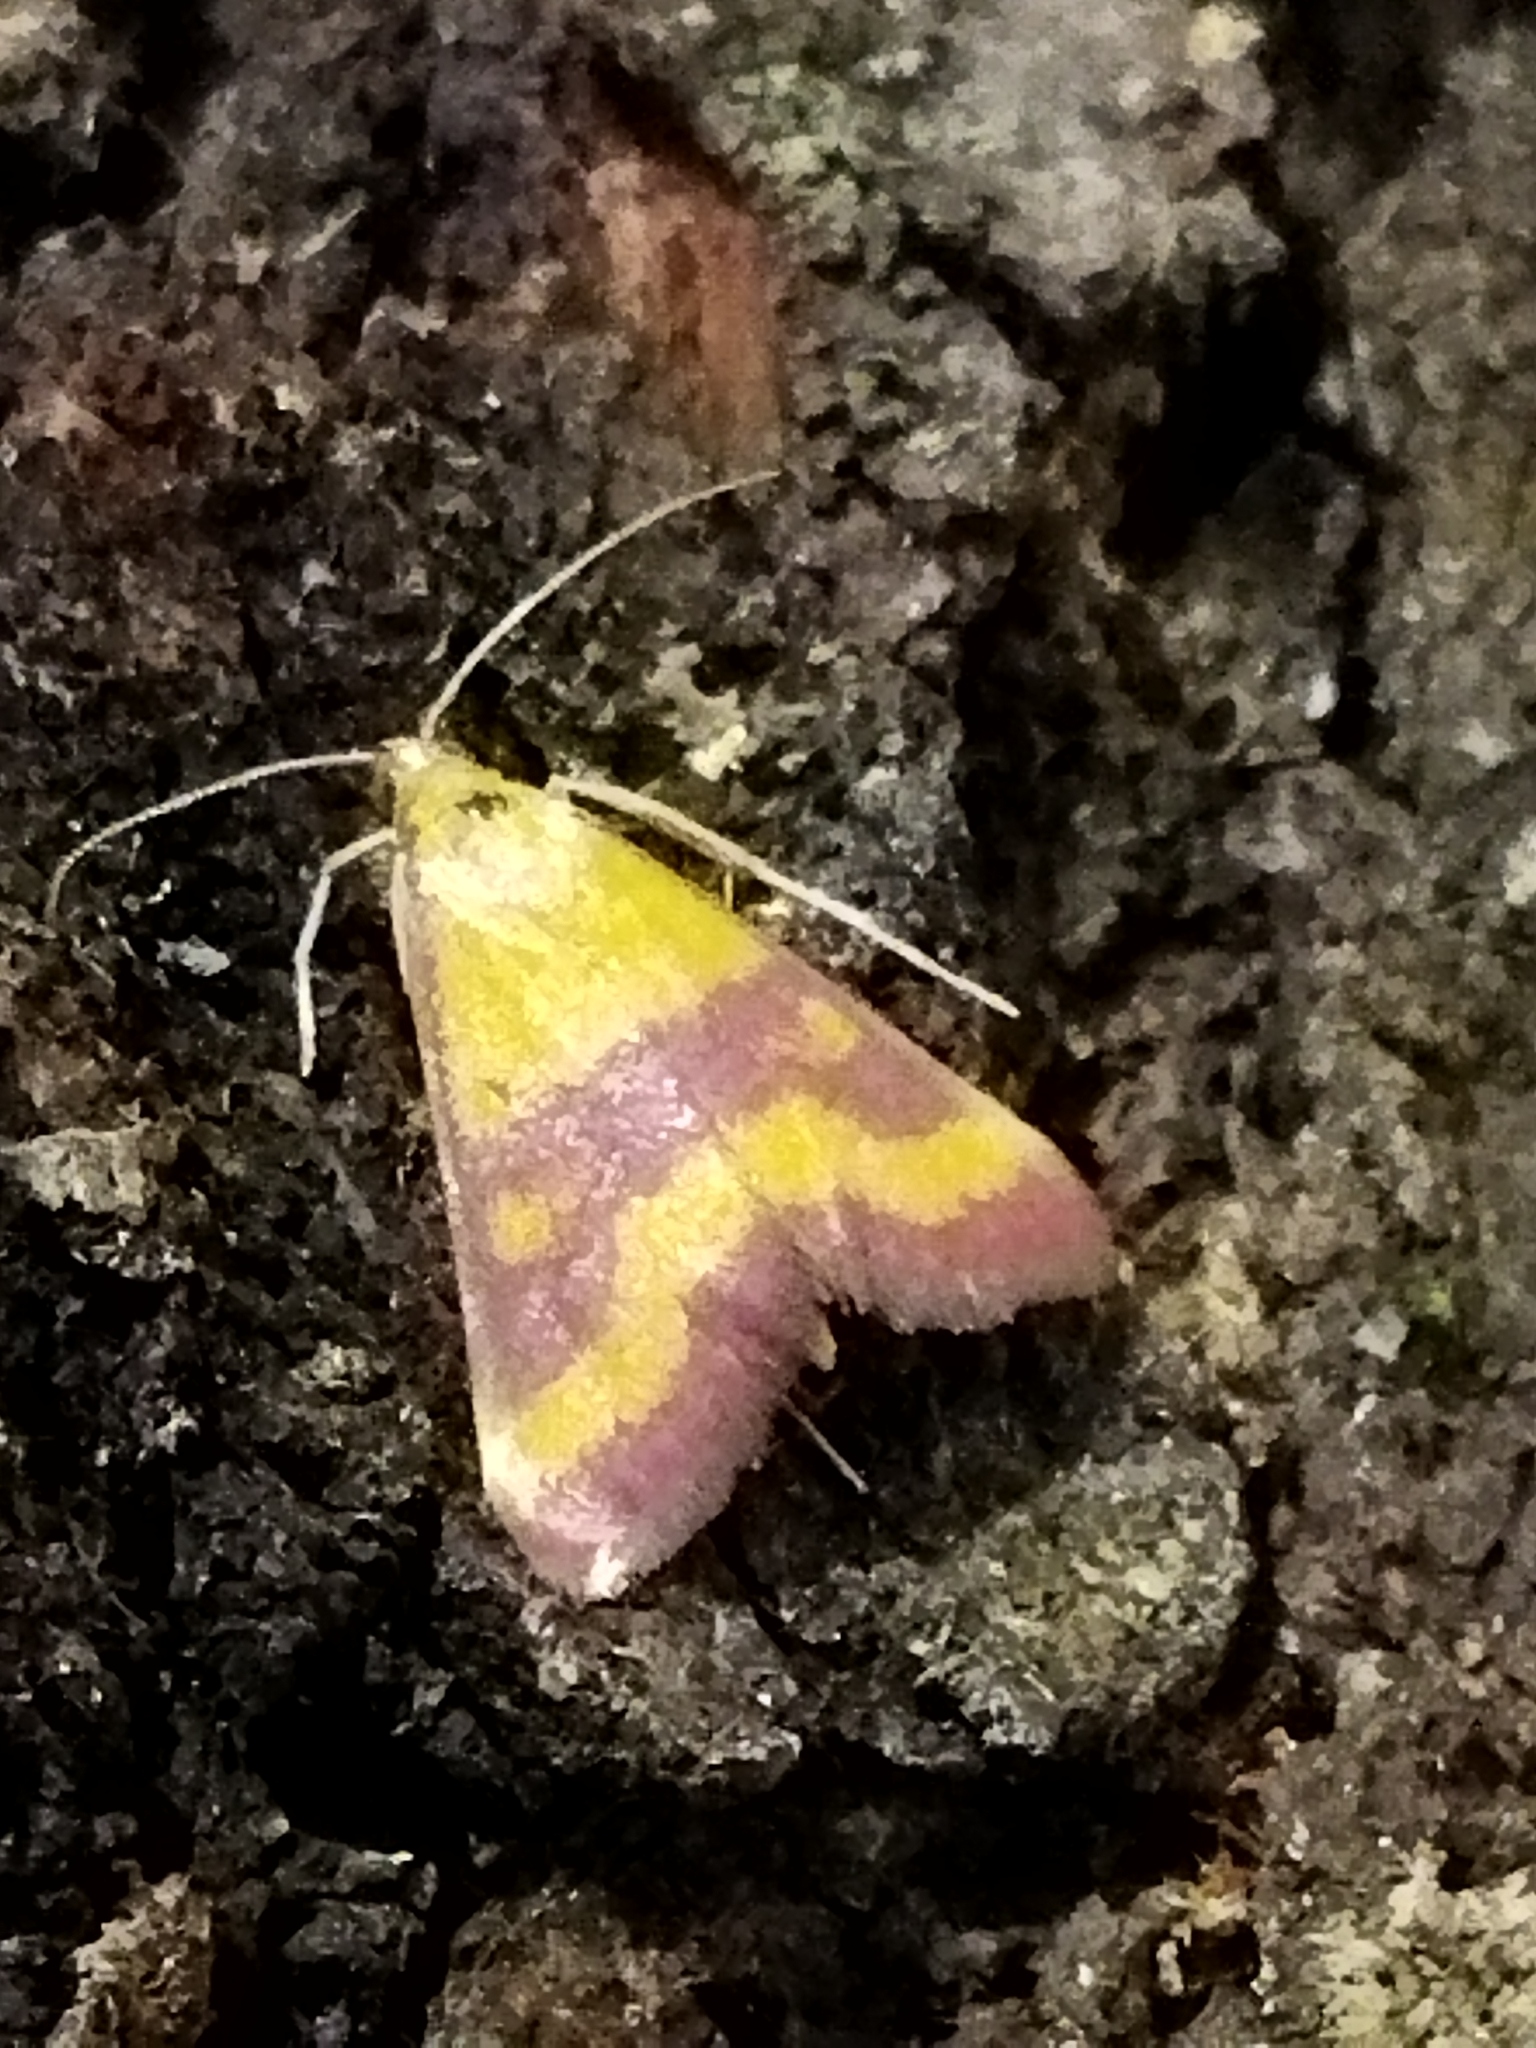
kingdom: Animalia
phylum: Arthropoda
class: Insecta
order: Lepidoptera
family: Crambidae
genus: Pyrausta
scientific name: Pyrausta sanguinalis
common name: Scarce crimson and gold
